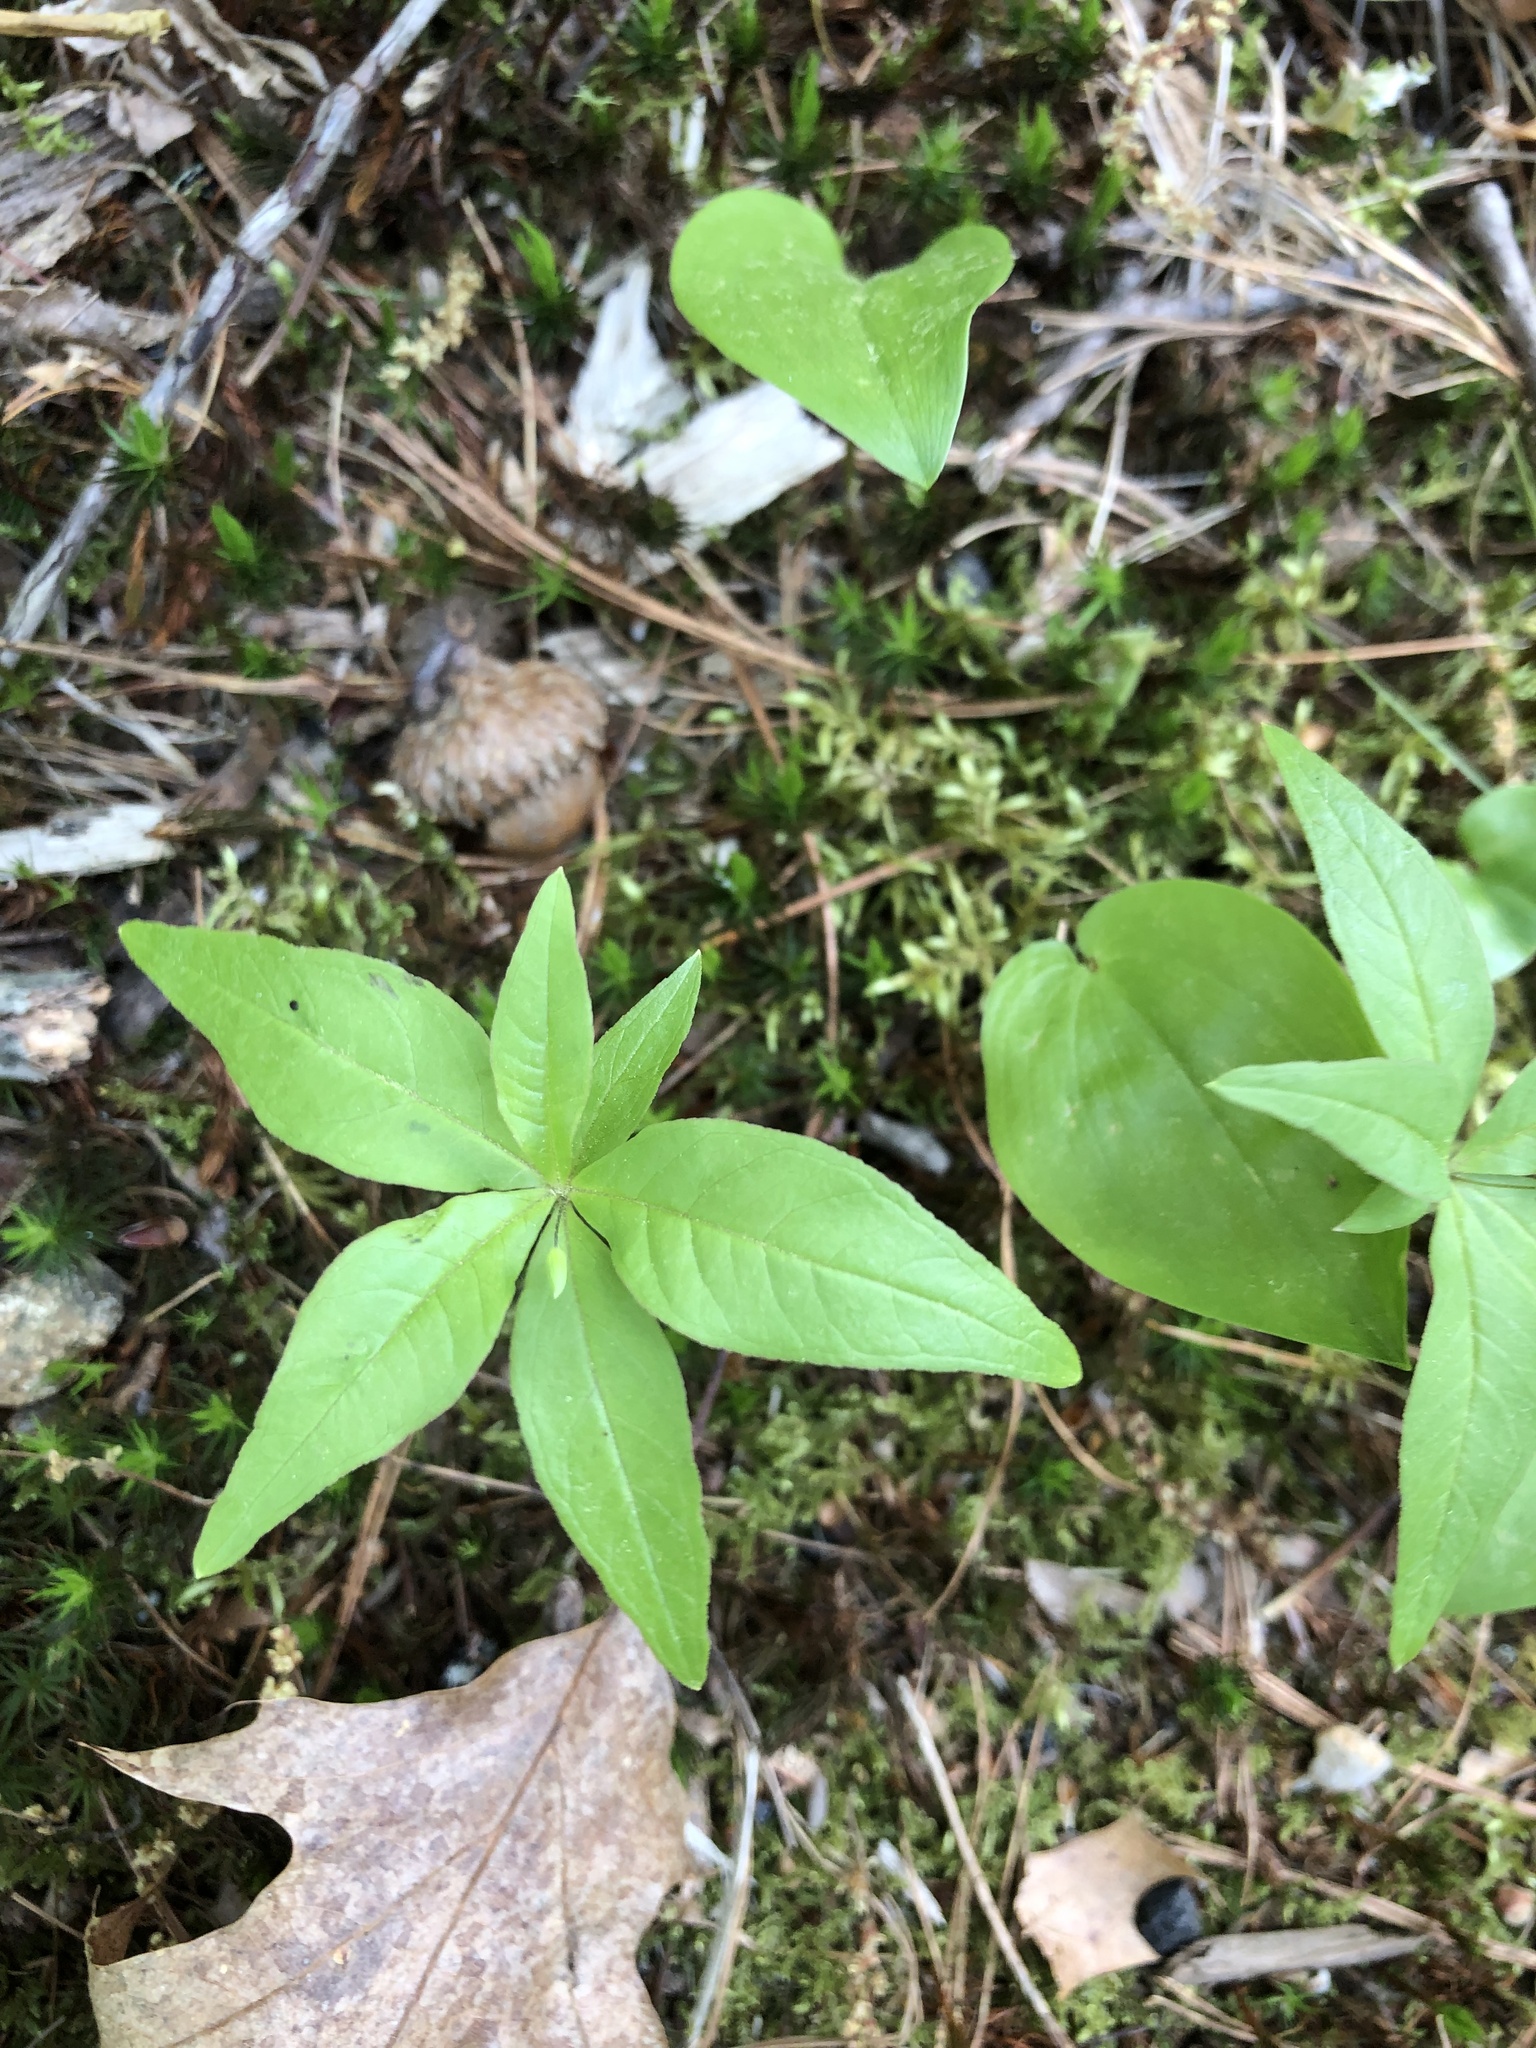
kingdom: Plantae
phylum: Tracheophyta
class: Magnoliopsida
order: Ericales
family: Primulaceae
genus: Lysimachia
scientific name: Lysimachia borealis
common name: American starflower
